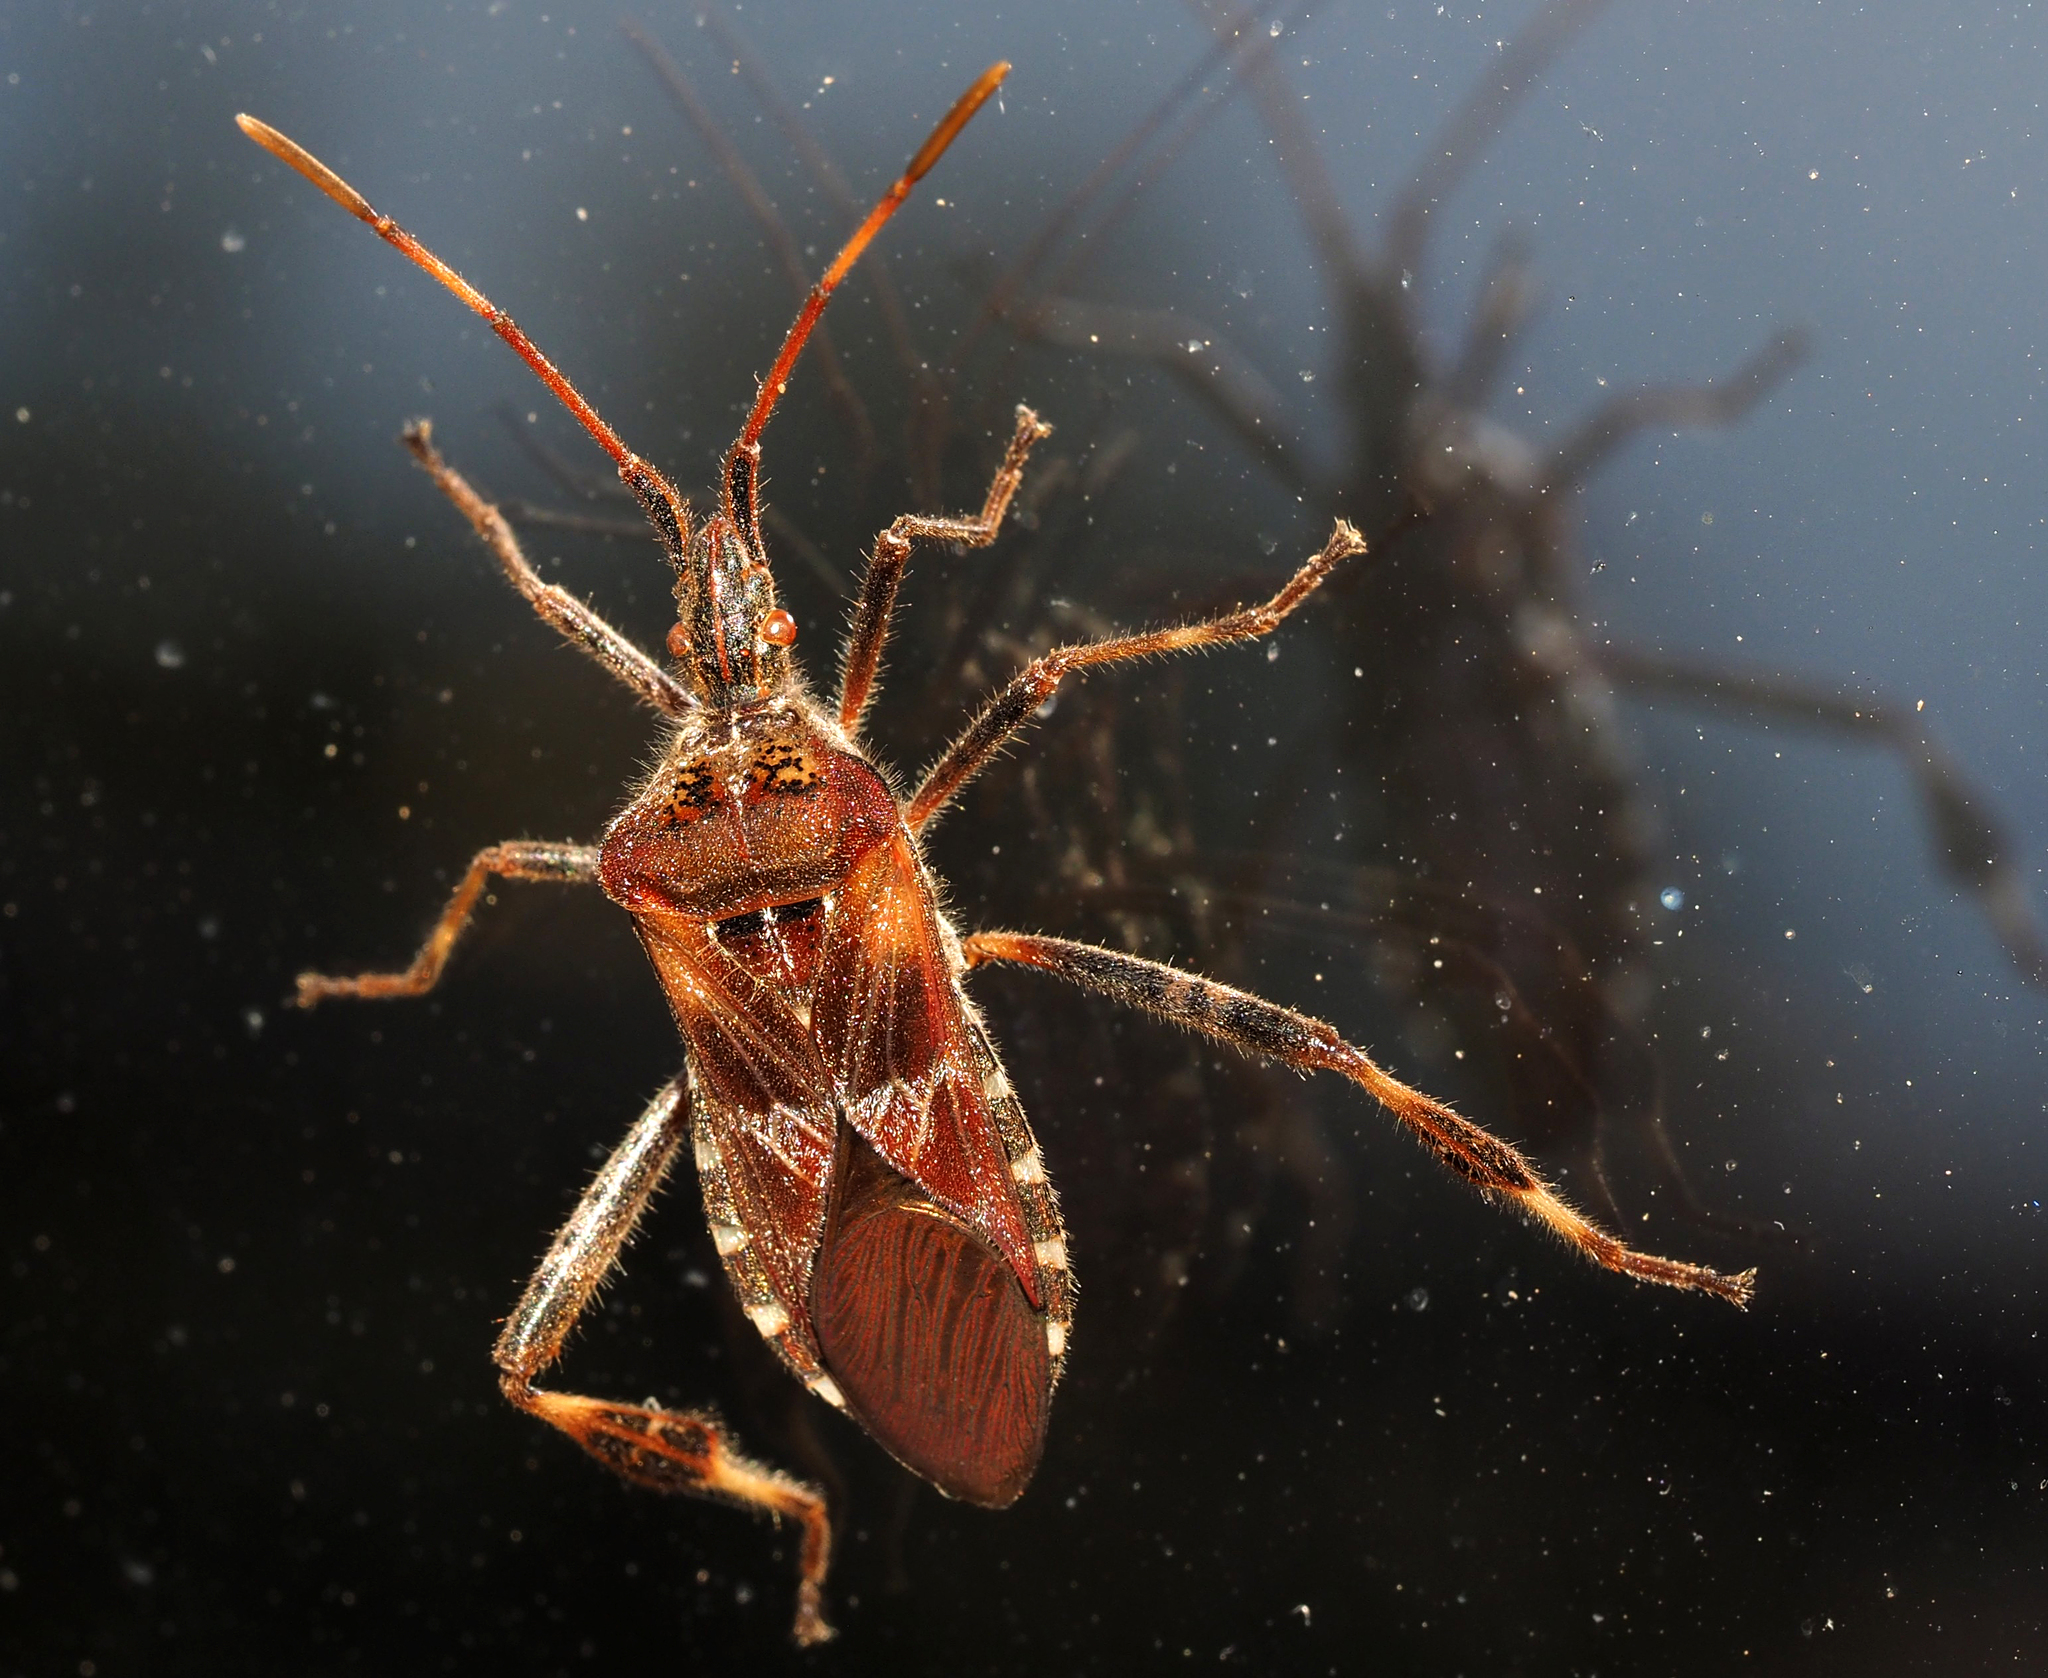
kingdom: Animalia
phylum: Arthropoda
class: Insecta
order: Hemiptera
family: Coreidae
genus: Leptoglossus
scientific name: Leptoglossus occidentalis
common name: Western conifer-seed bug
